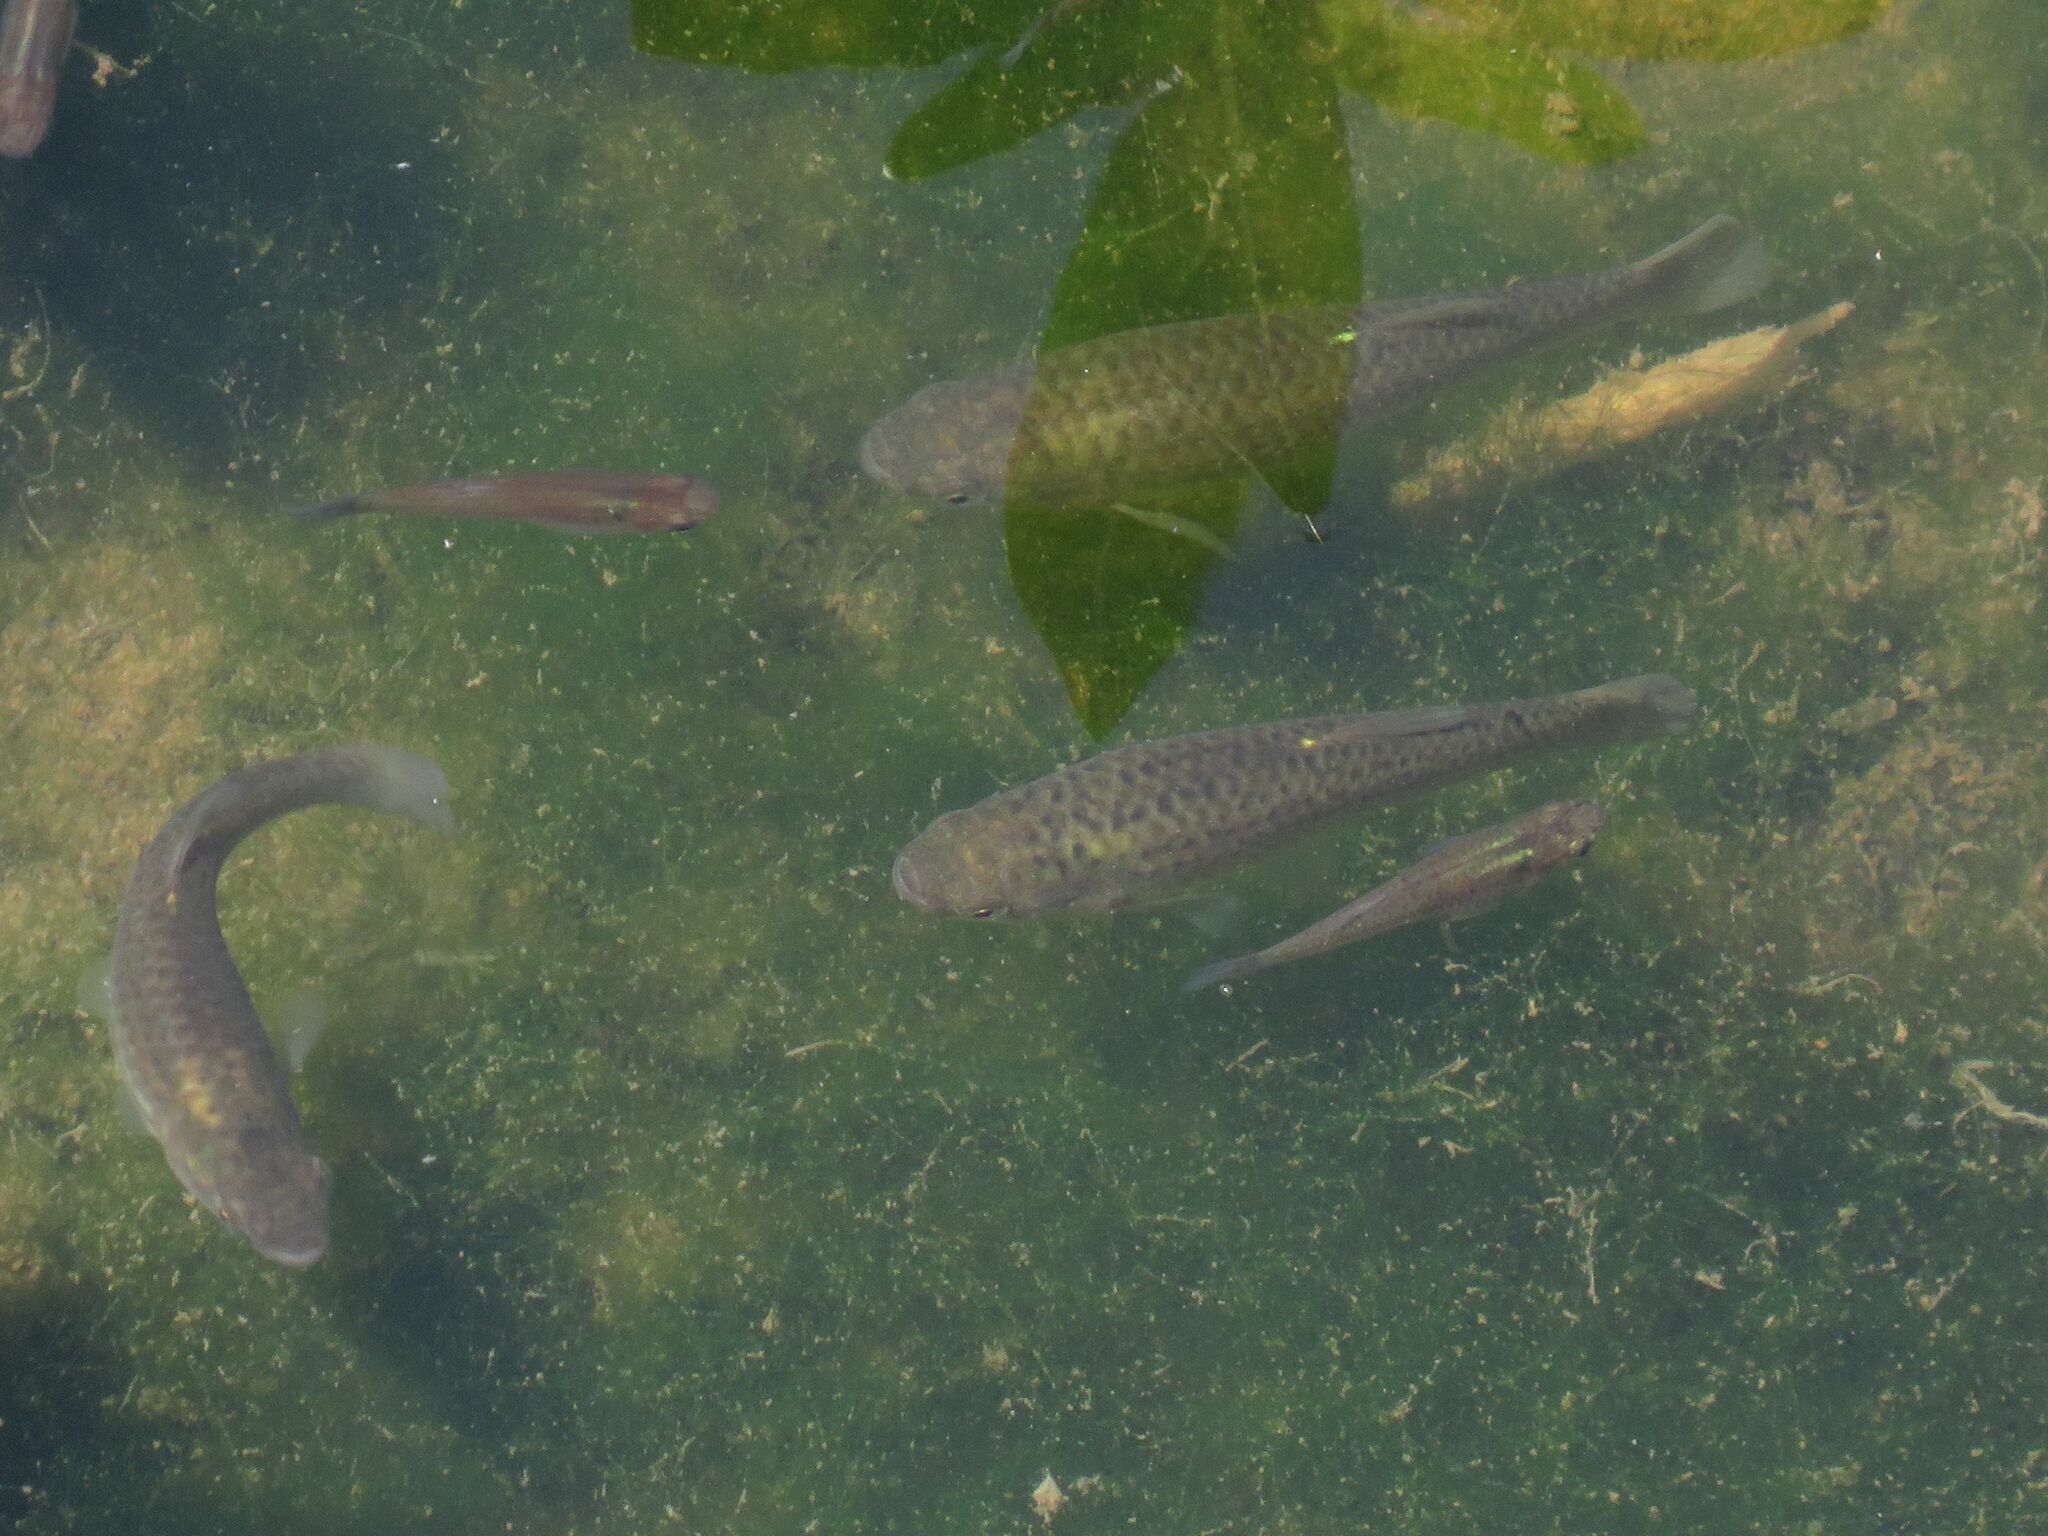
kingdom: Animalia
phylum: Chordata
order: Cyprinodontiformes
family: Anablepidae
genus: Jenynsia
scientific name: Jenynsia lineata
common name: Onesided livebearer
